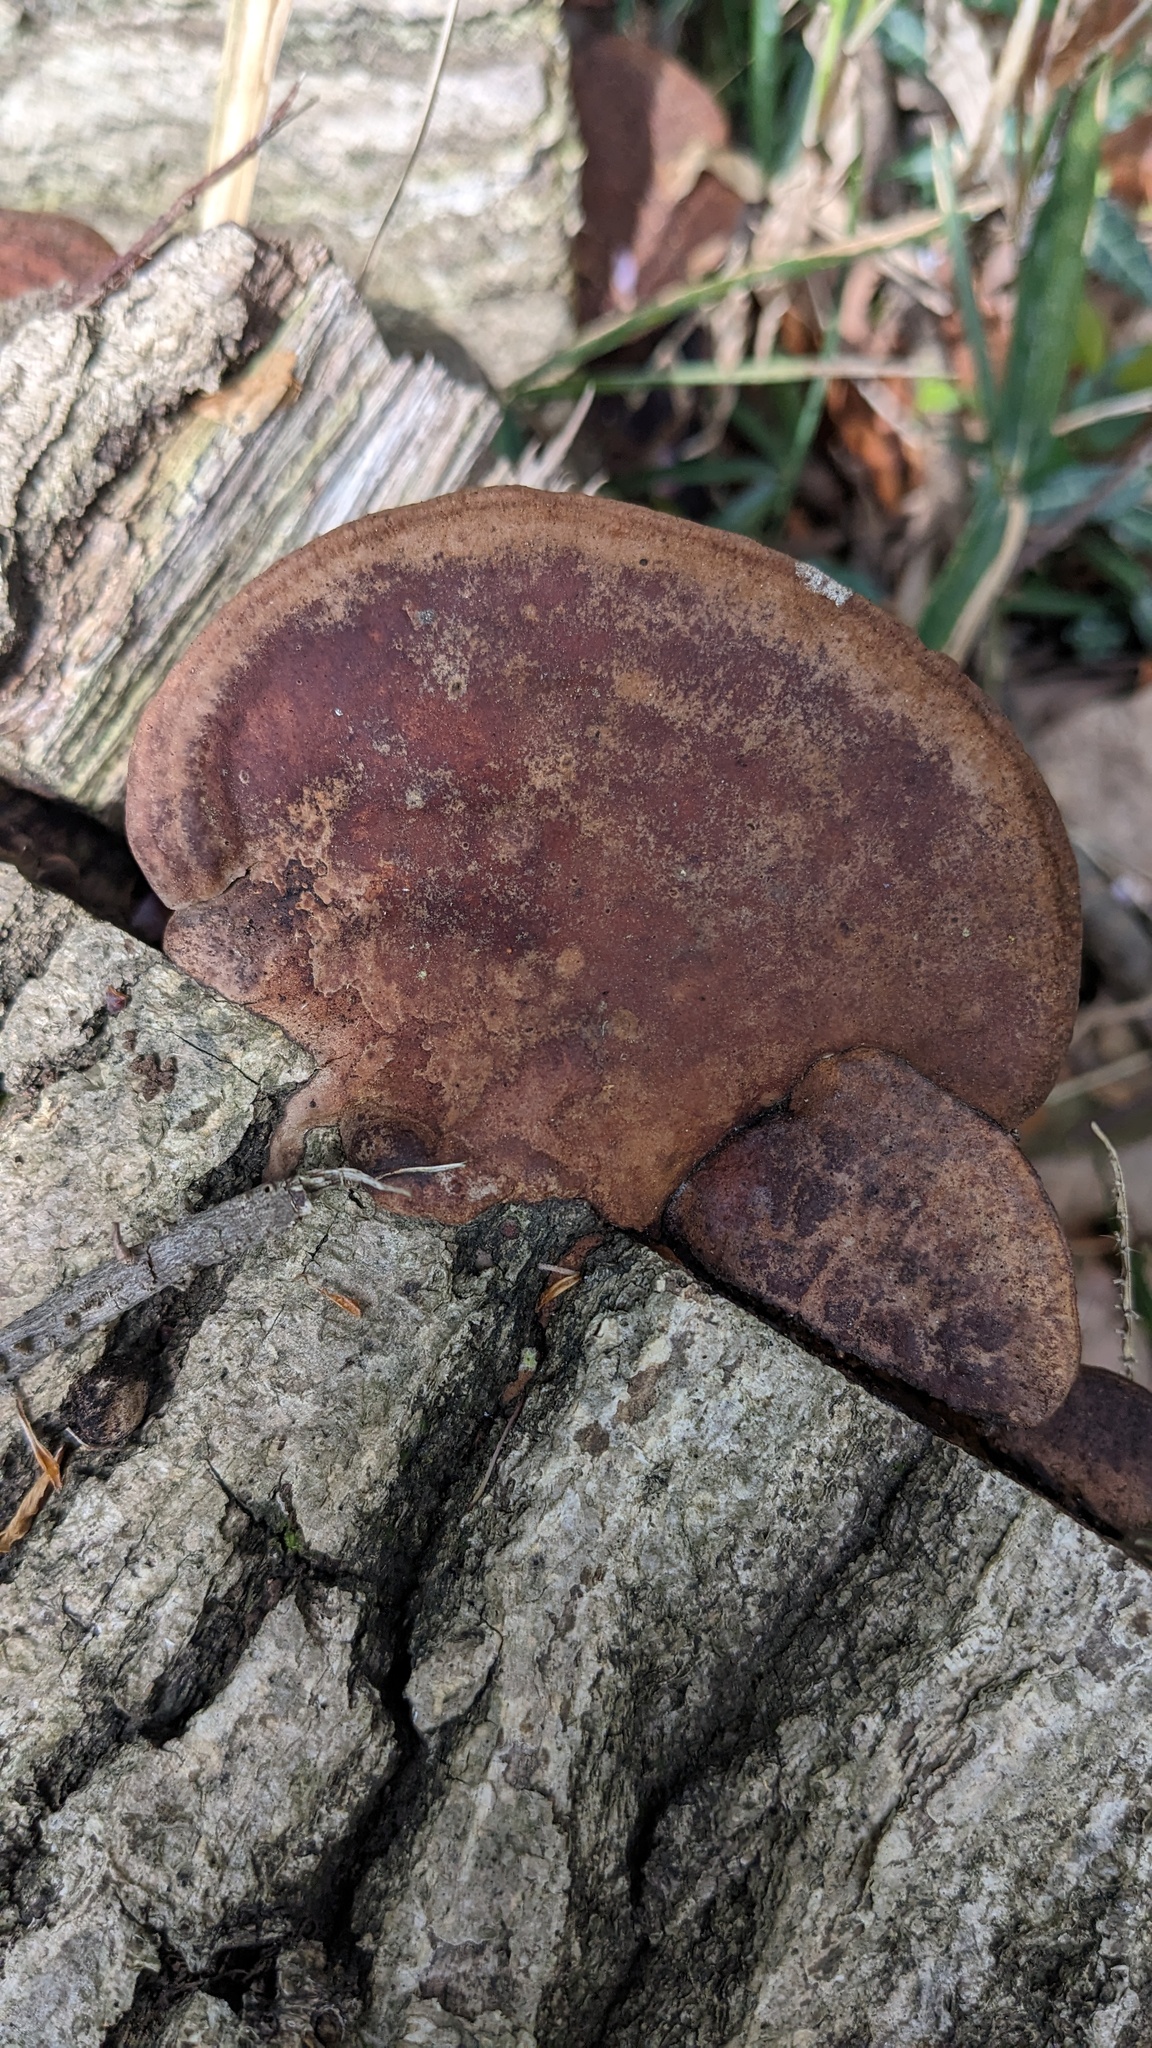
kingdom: Fungi
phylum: Basidiomycota
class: Agaricomycetes
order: Hymenochaetales
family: Hymenochaetaceae
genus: Phellinus
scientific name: Phellinus gilvus
